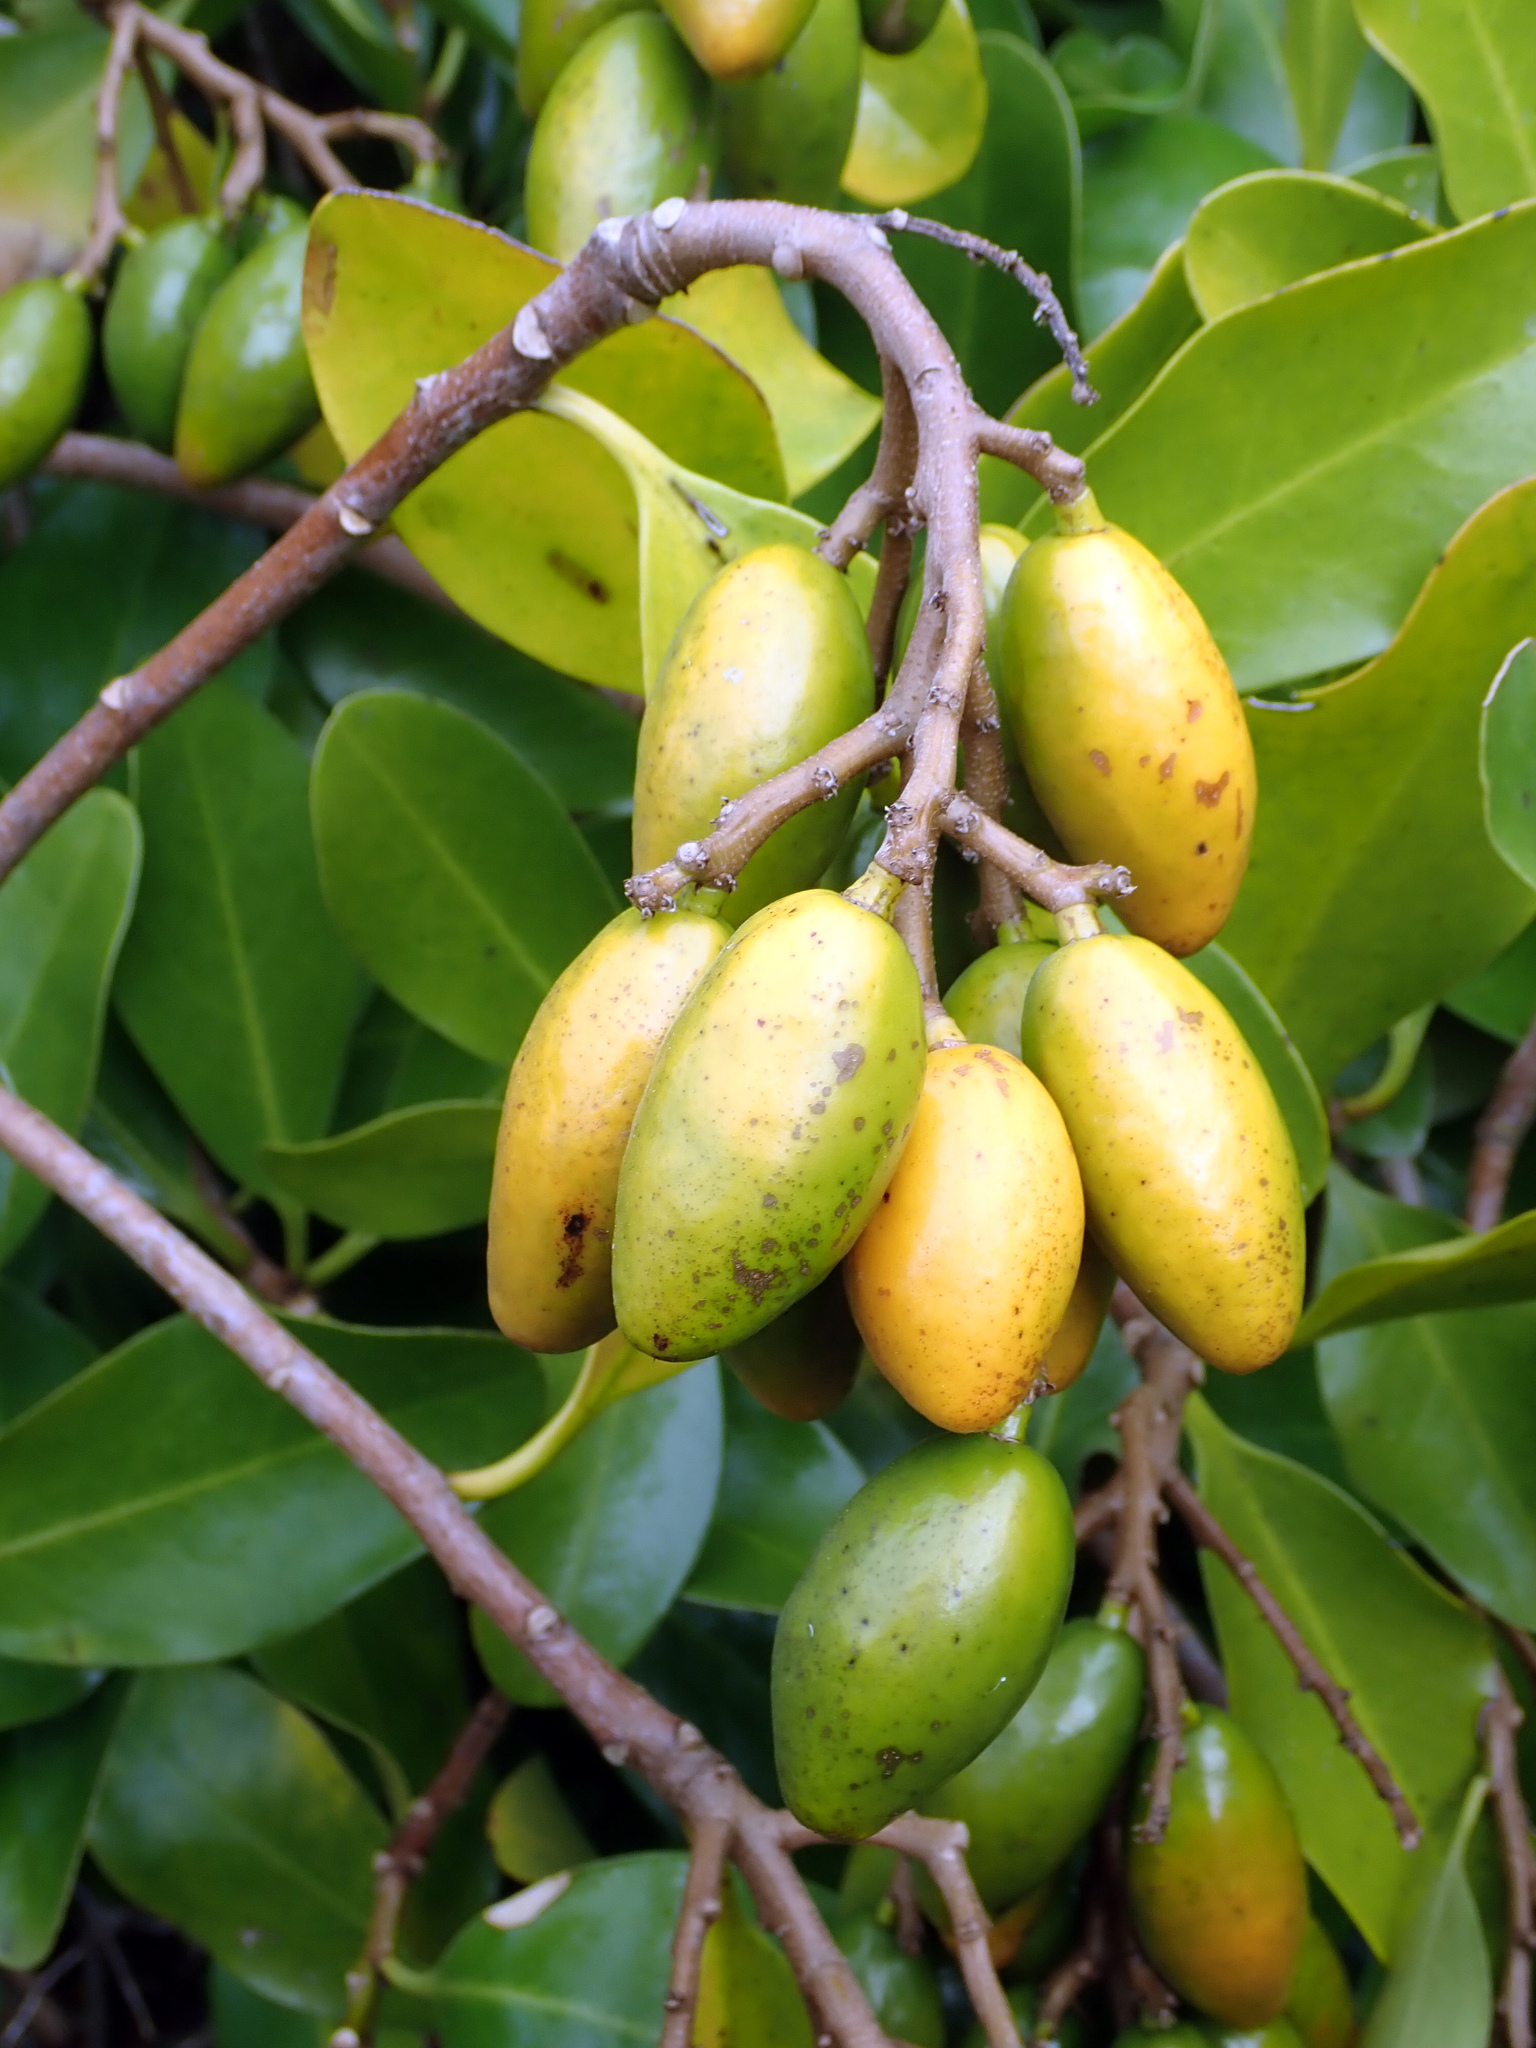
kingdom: Plantae
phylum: Tracheophyta
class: Magnoliopsida
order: Cucurbitales
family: Corynocarpaceae
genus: Corynocarpus
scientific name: Corynocarpus laevigatus
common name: New zealand laurel
